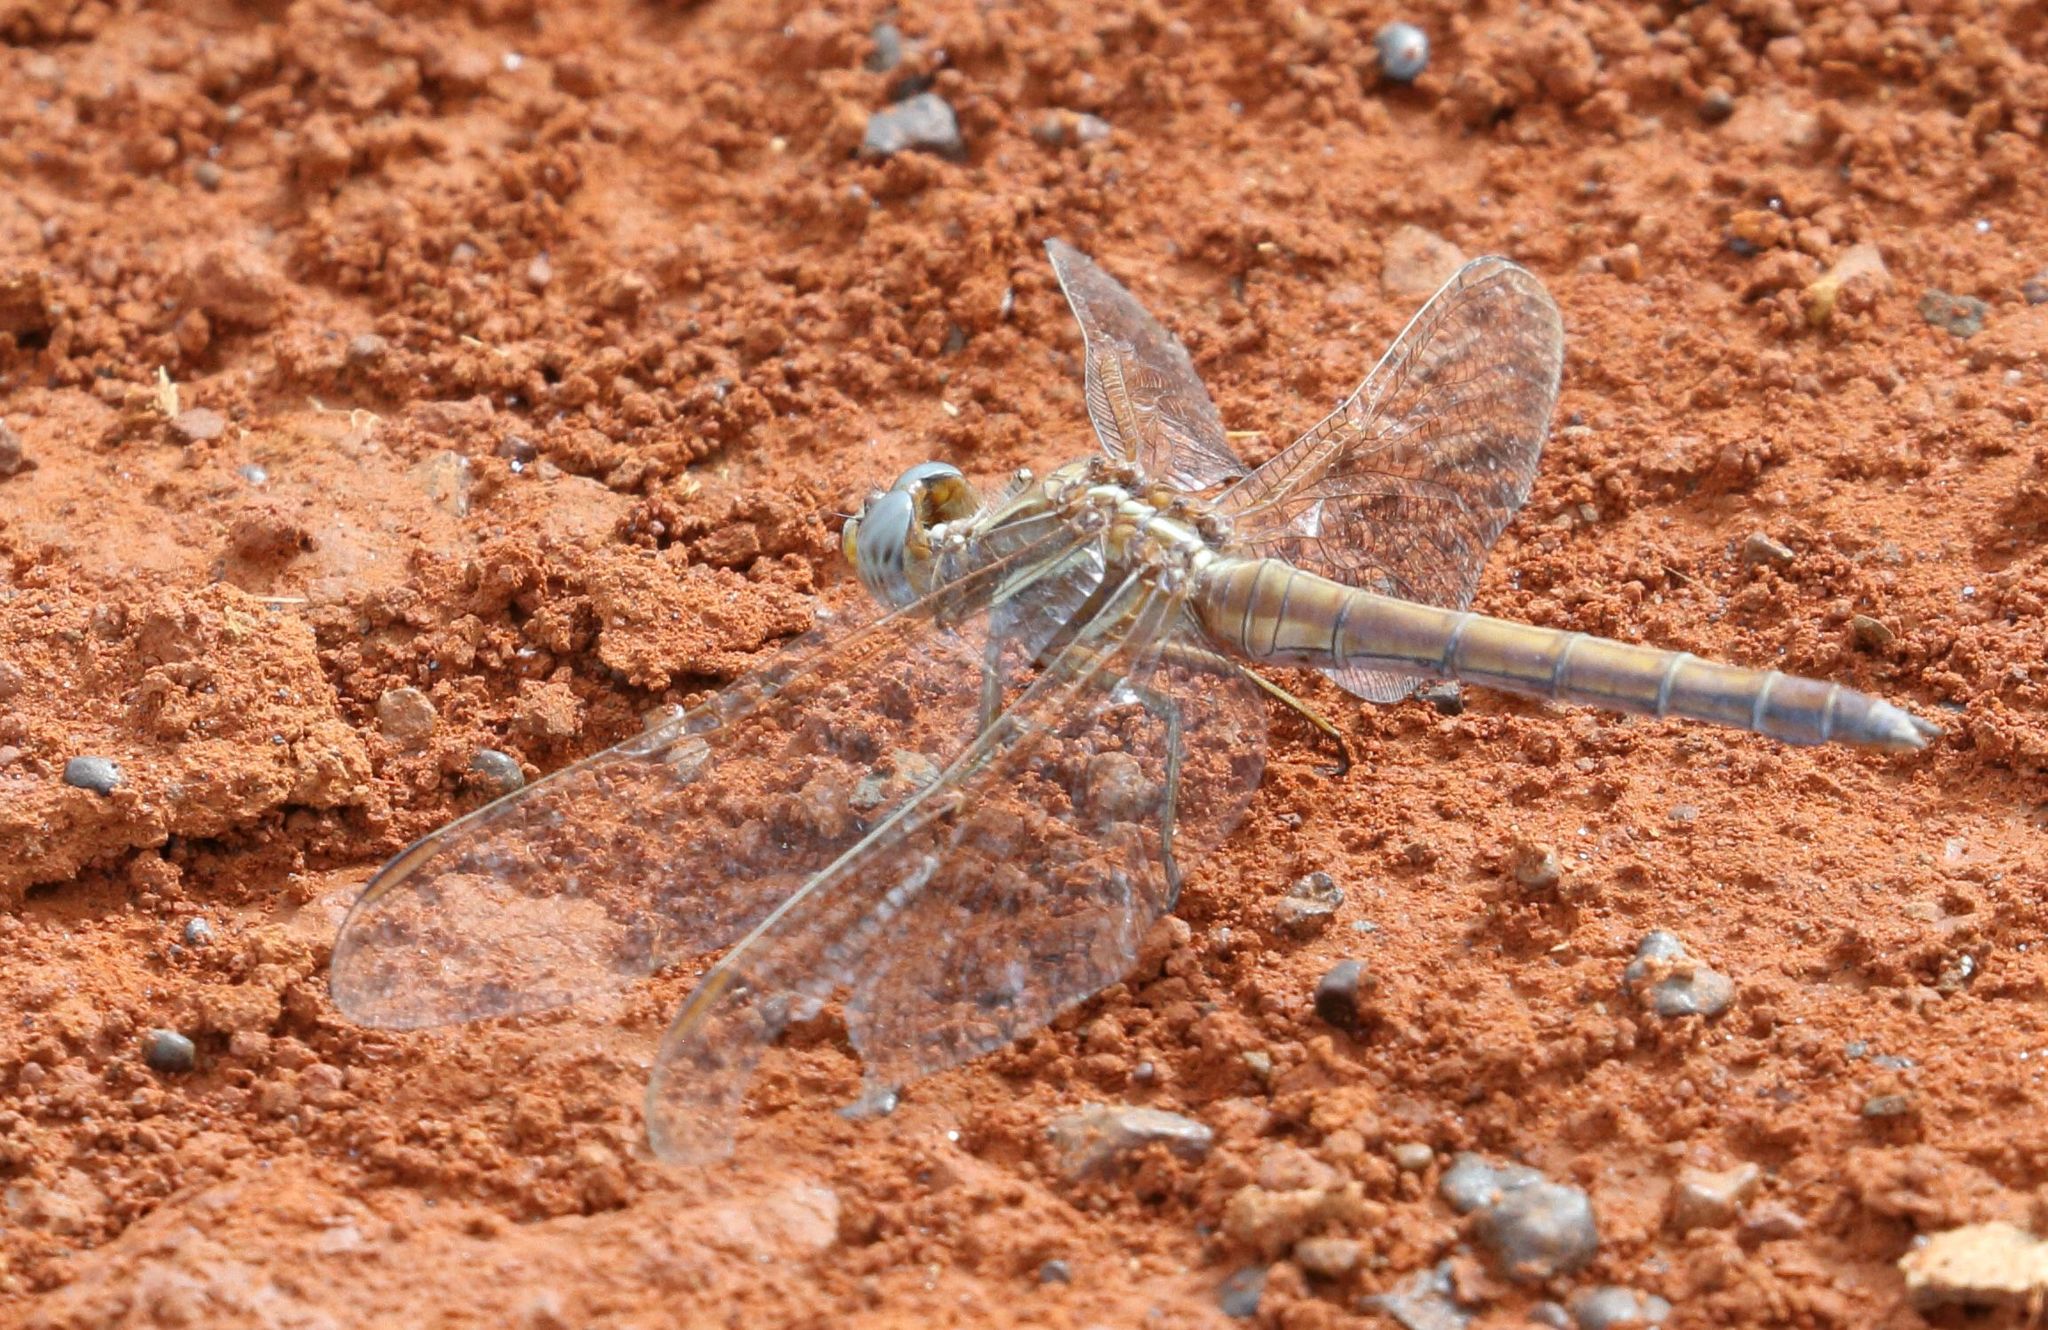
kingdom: Animalia
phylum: Arthropoda
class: Insecta
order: Odonata
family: Libellulidae
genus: Orthetrum
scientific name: Orthetrum caffrum
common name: Two-striped skimmer
